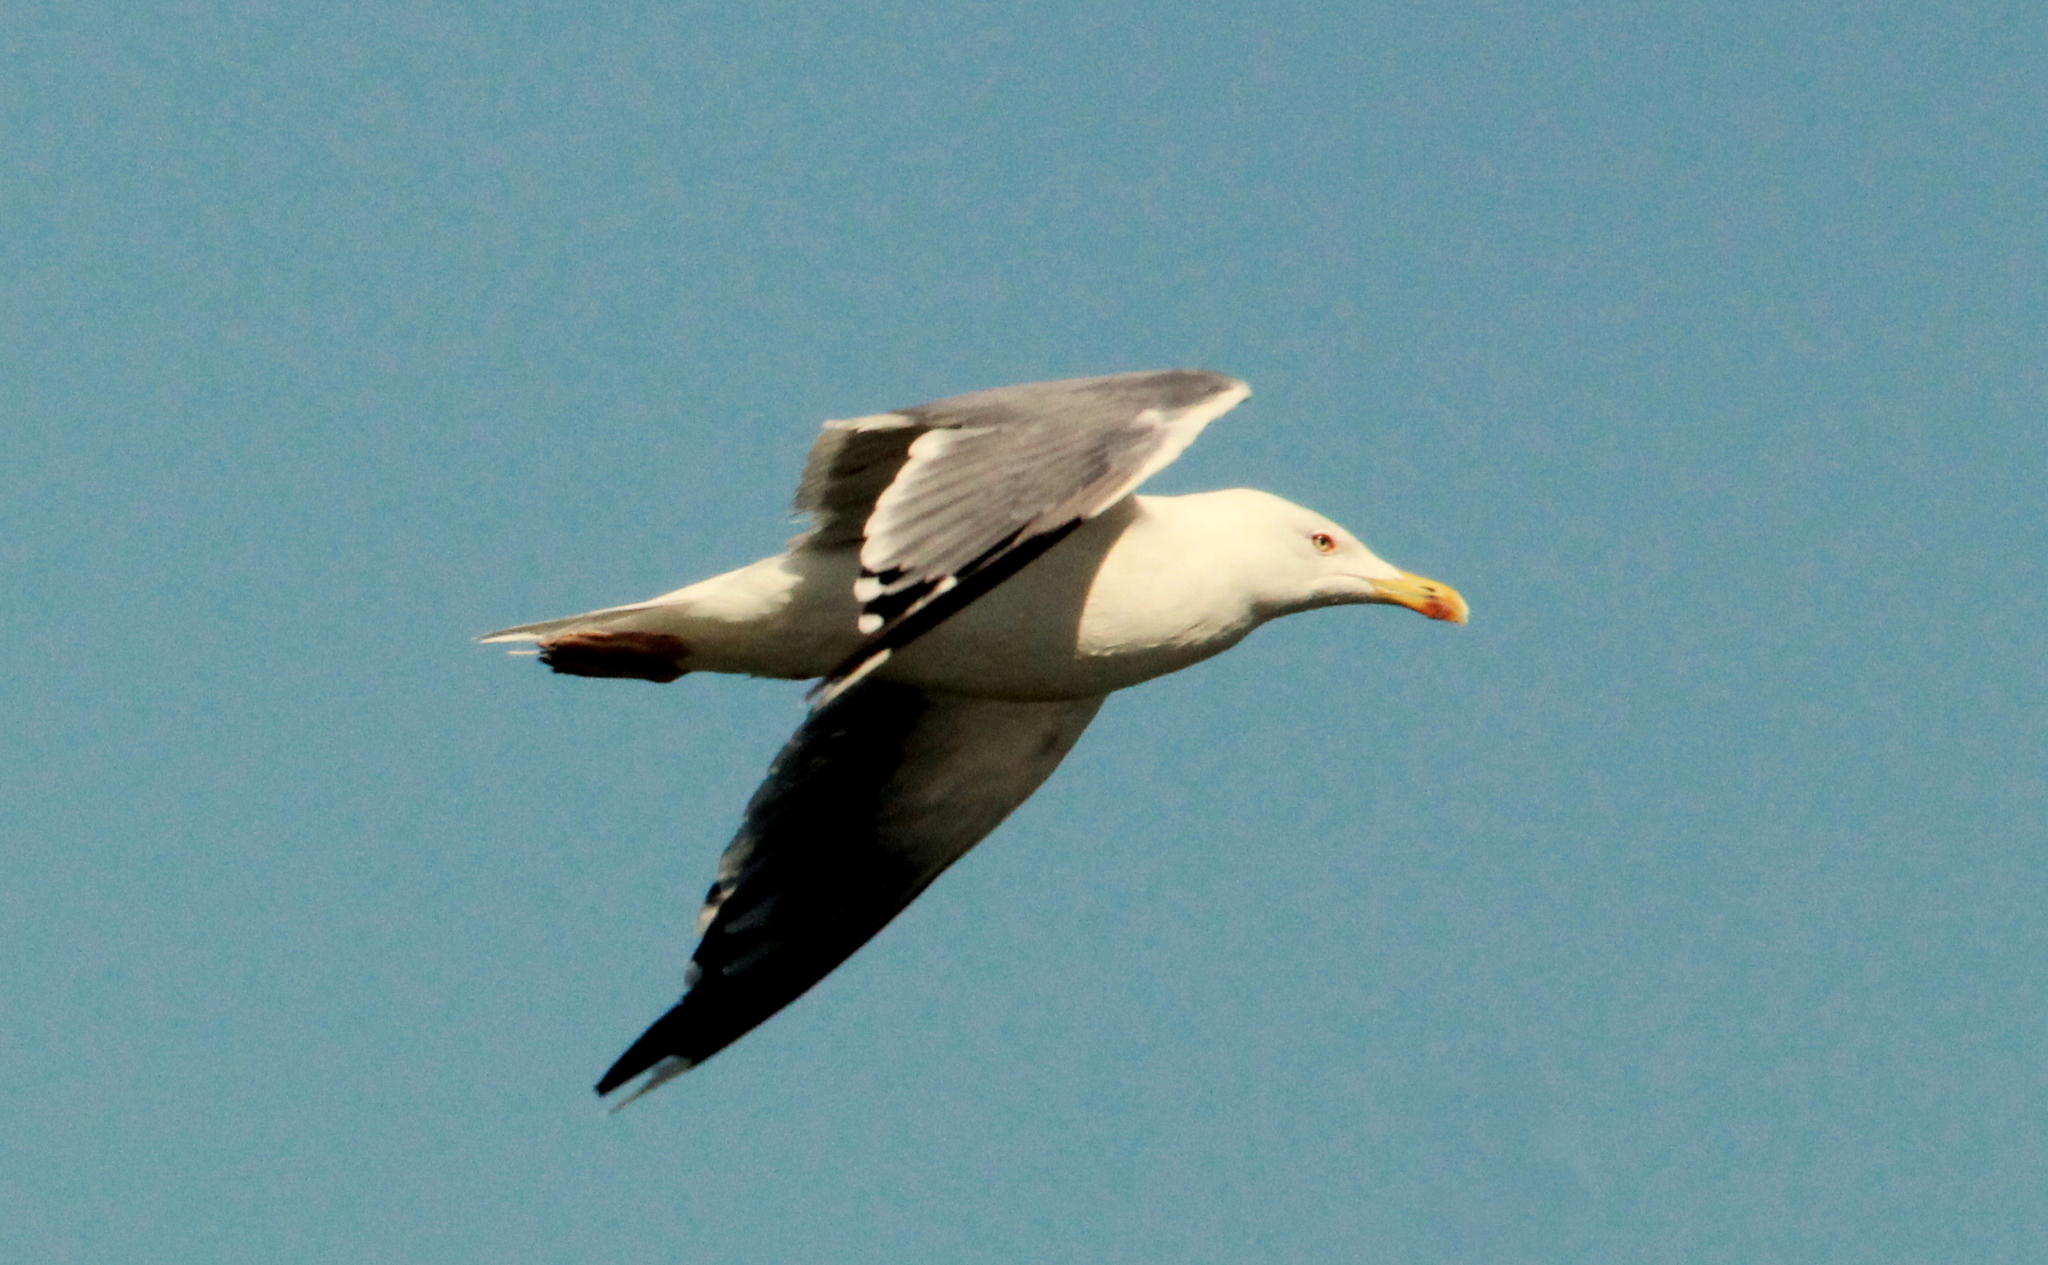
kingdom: Animalia
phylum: Chordata
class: Aves
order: Charadriiformes
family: Laridae
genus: Larus
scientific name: Larus michahellis
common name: Yellow-legged gull
